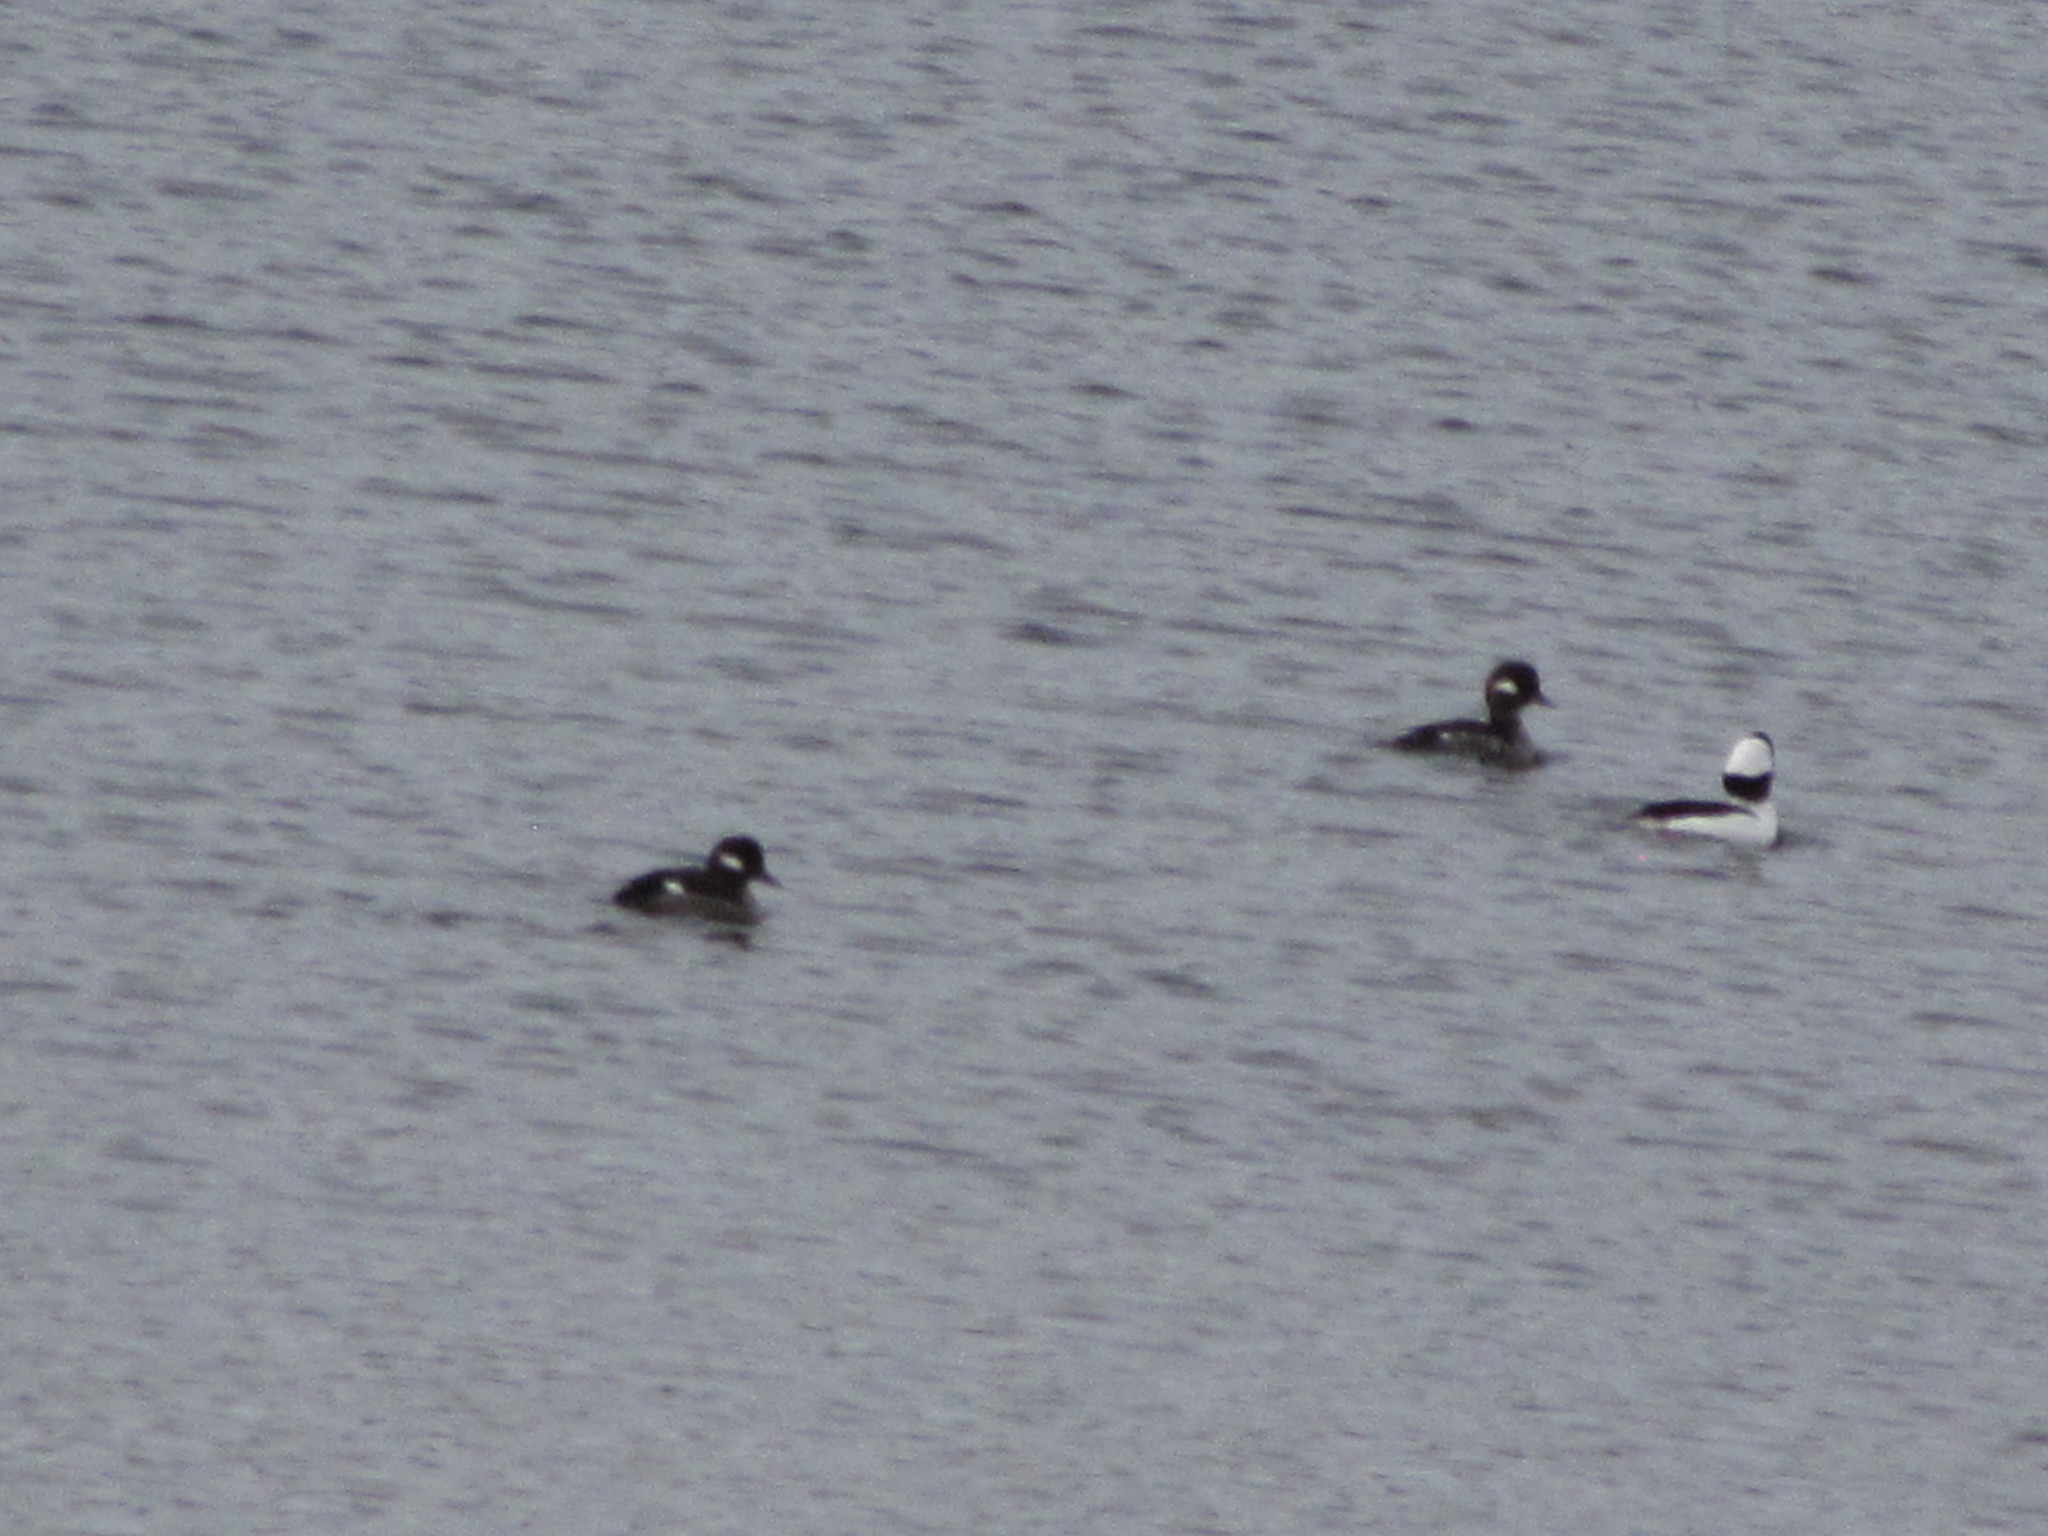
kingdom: Animalia
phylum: Chordata
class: Aves
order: Anseriformes
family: Anatidae
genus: Bucephala
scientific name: Bucephala albeola
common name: Bufflehead
